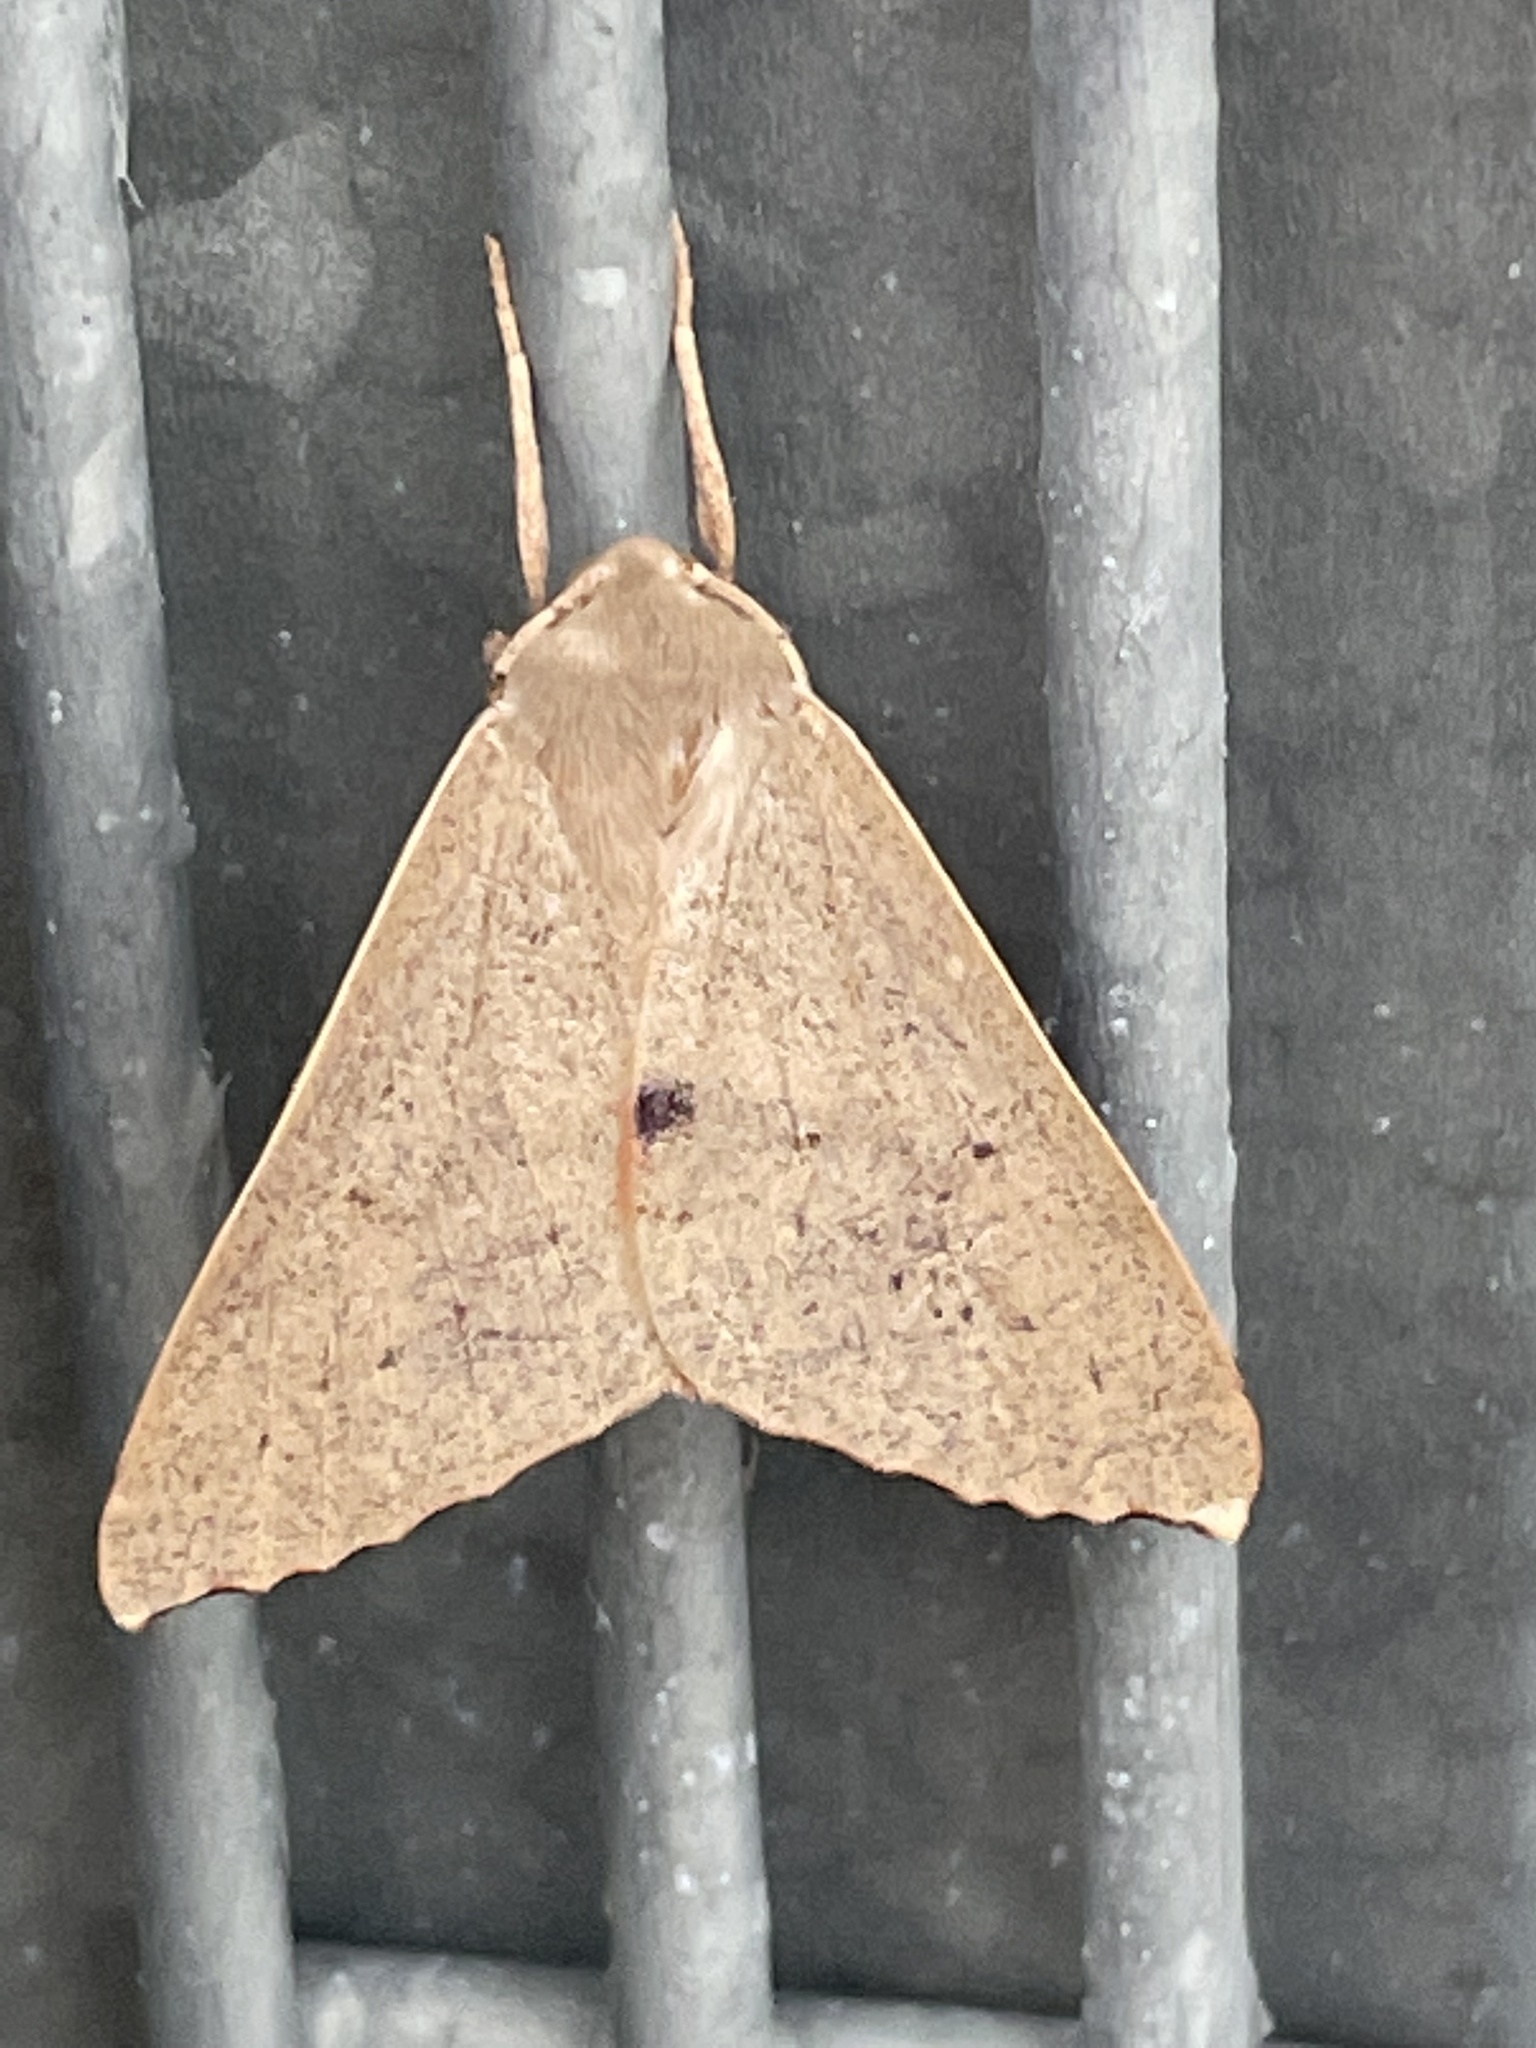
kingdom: Animalia
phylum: Arthropoda
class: Insecta
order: Lepidoptera
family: Geometridae
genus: Arhodia
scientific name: Arhodia lasiocamparia
